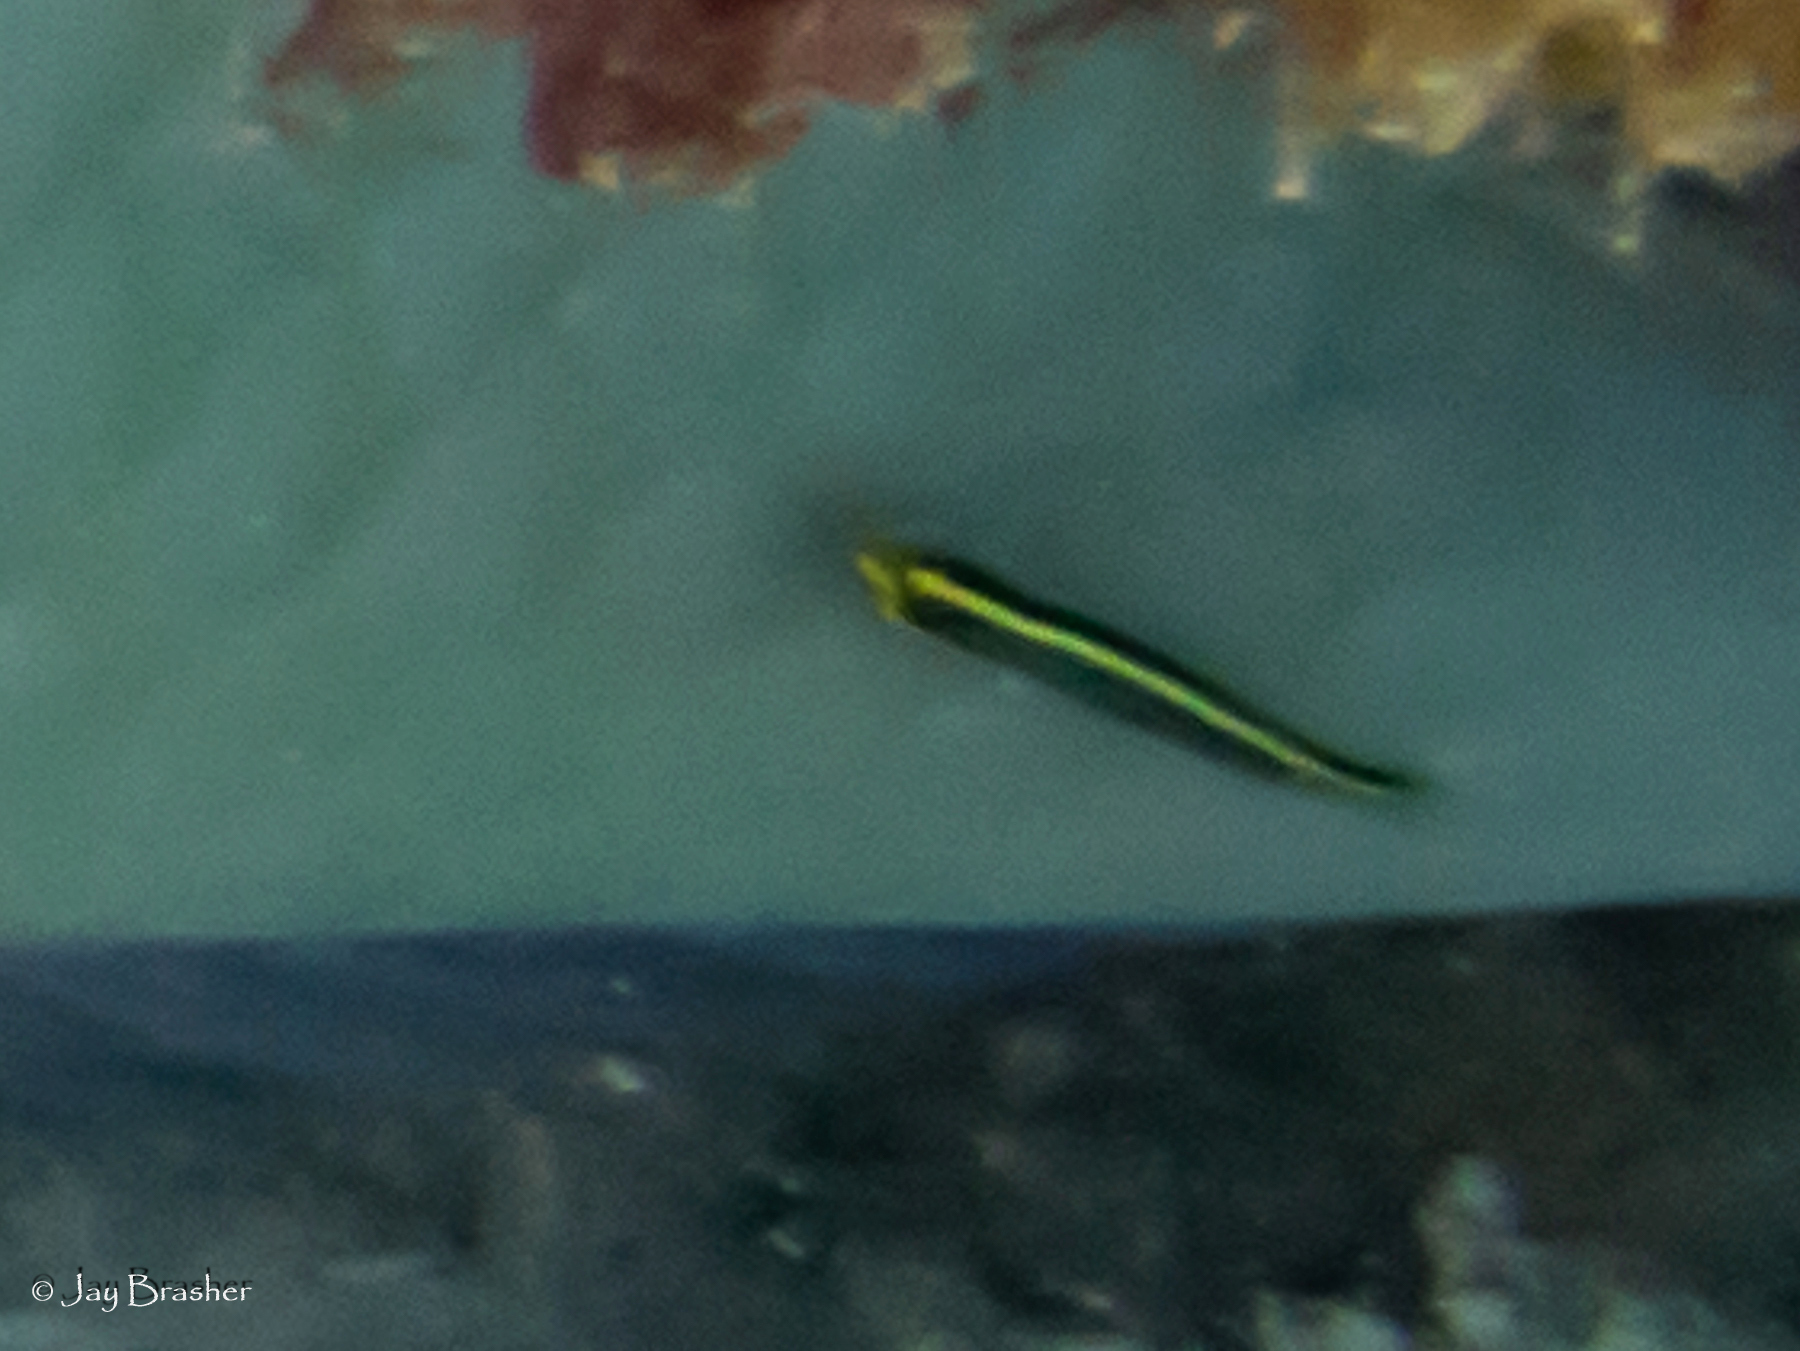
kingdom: Animalia
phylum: Chordata
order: Perciformes
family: Gobiidae
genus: Elacatinus
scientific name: Elacatinus randalli
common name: Yellownose goby
